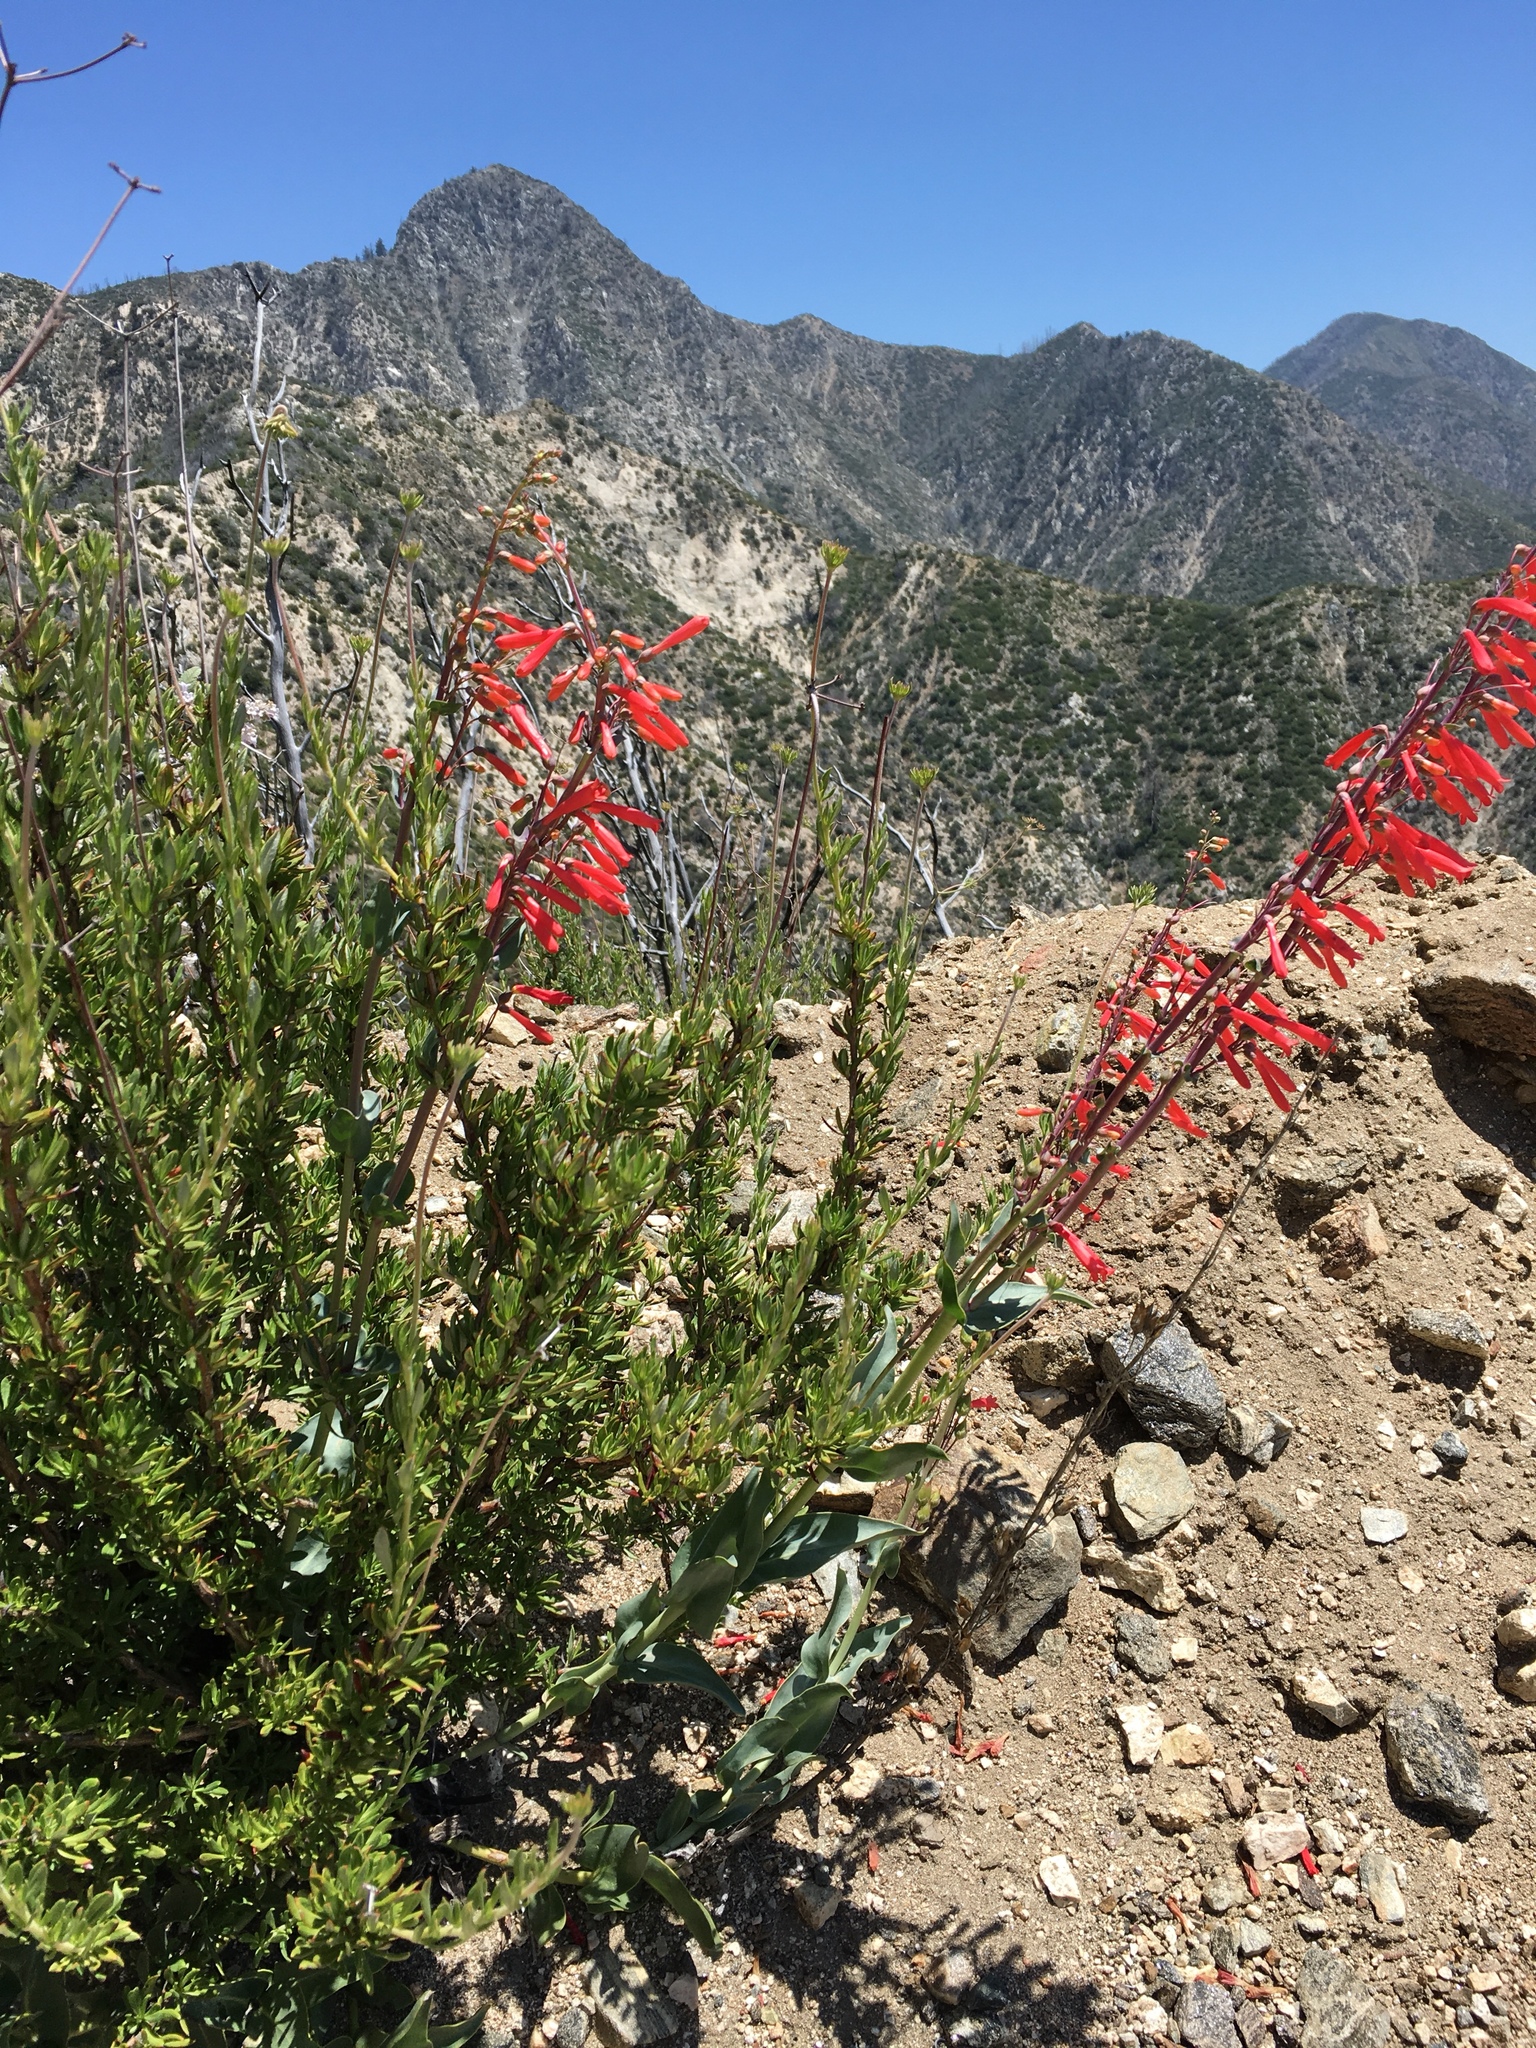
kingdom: Plantae
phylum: Tracheophyta
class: Magnoliopsida
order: Lamiales
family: Plantaginaceae
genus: Penstemon
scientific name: Penstemon centranthifolius
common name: Scarlet bugler
